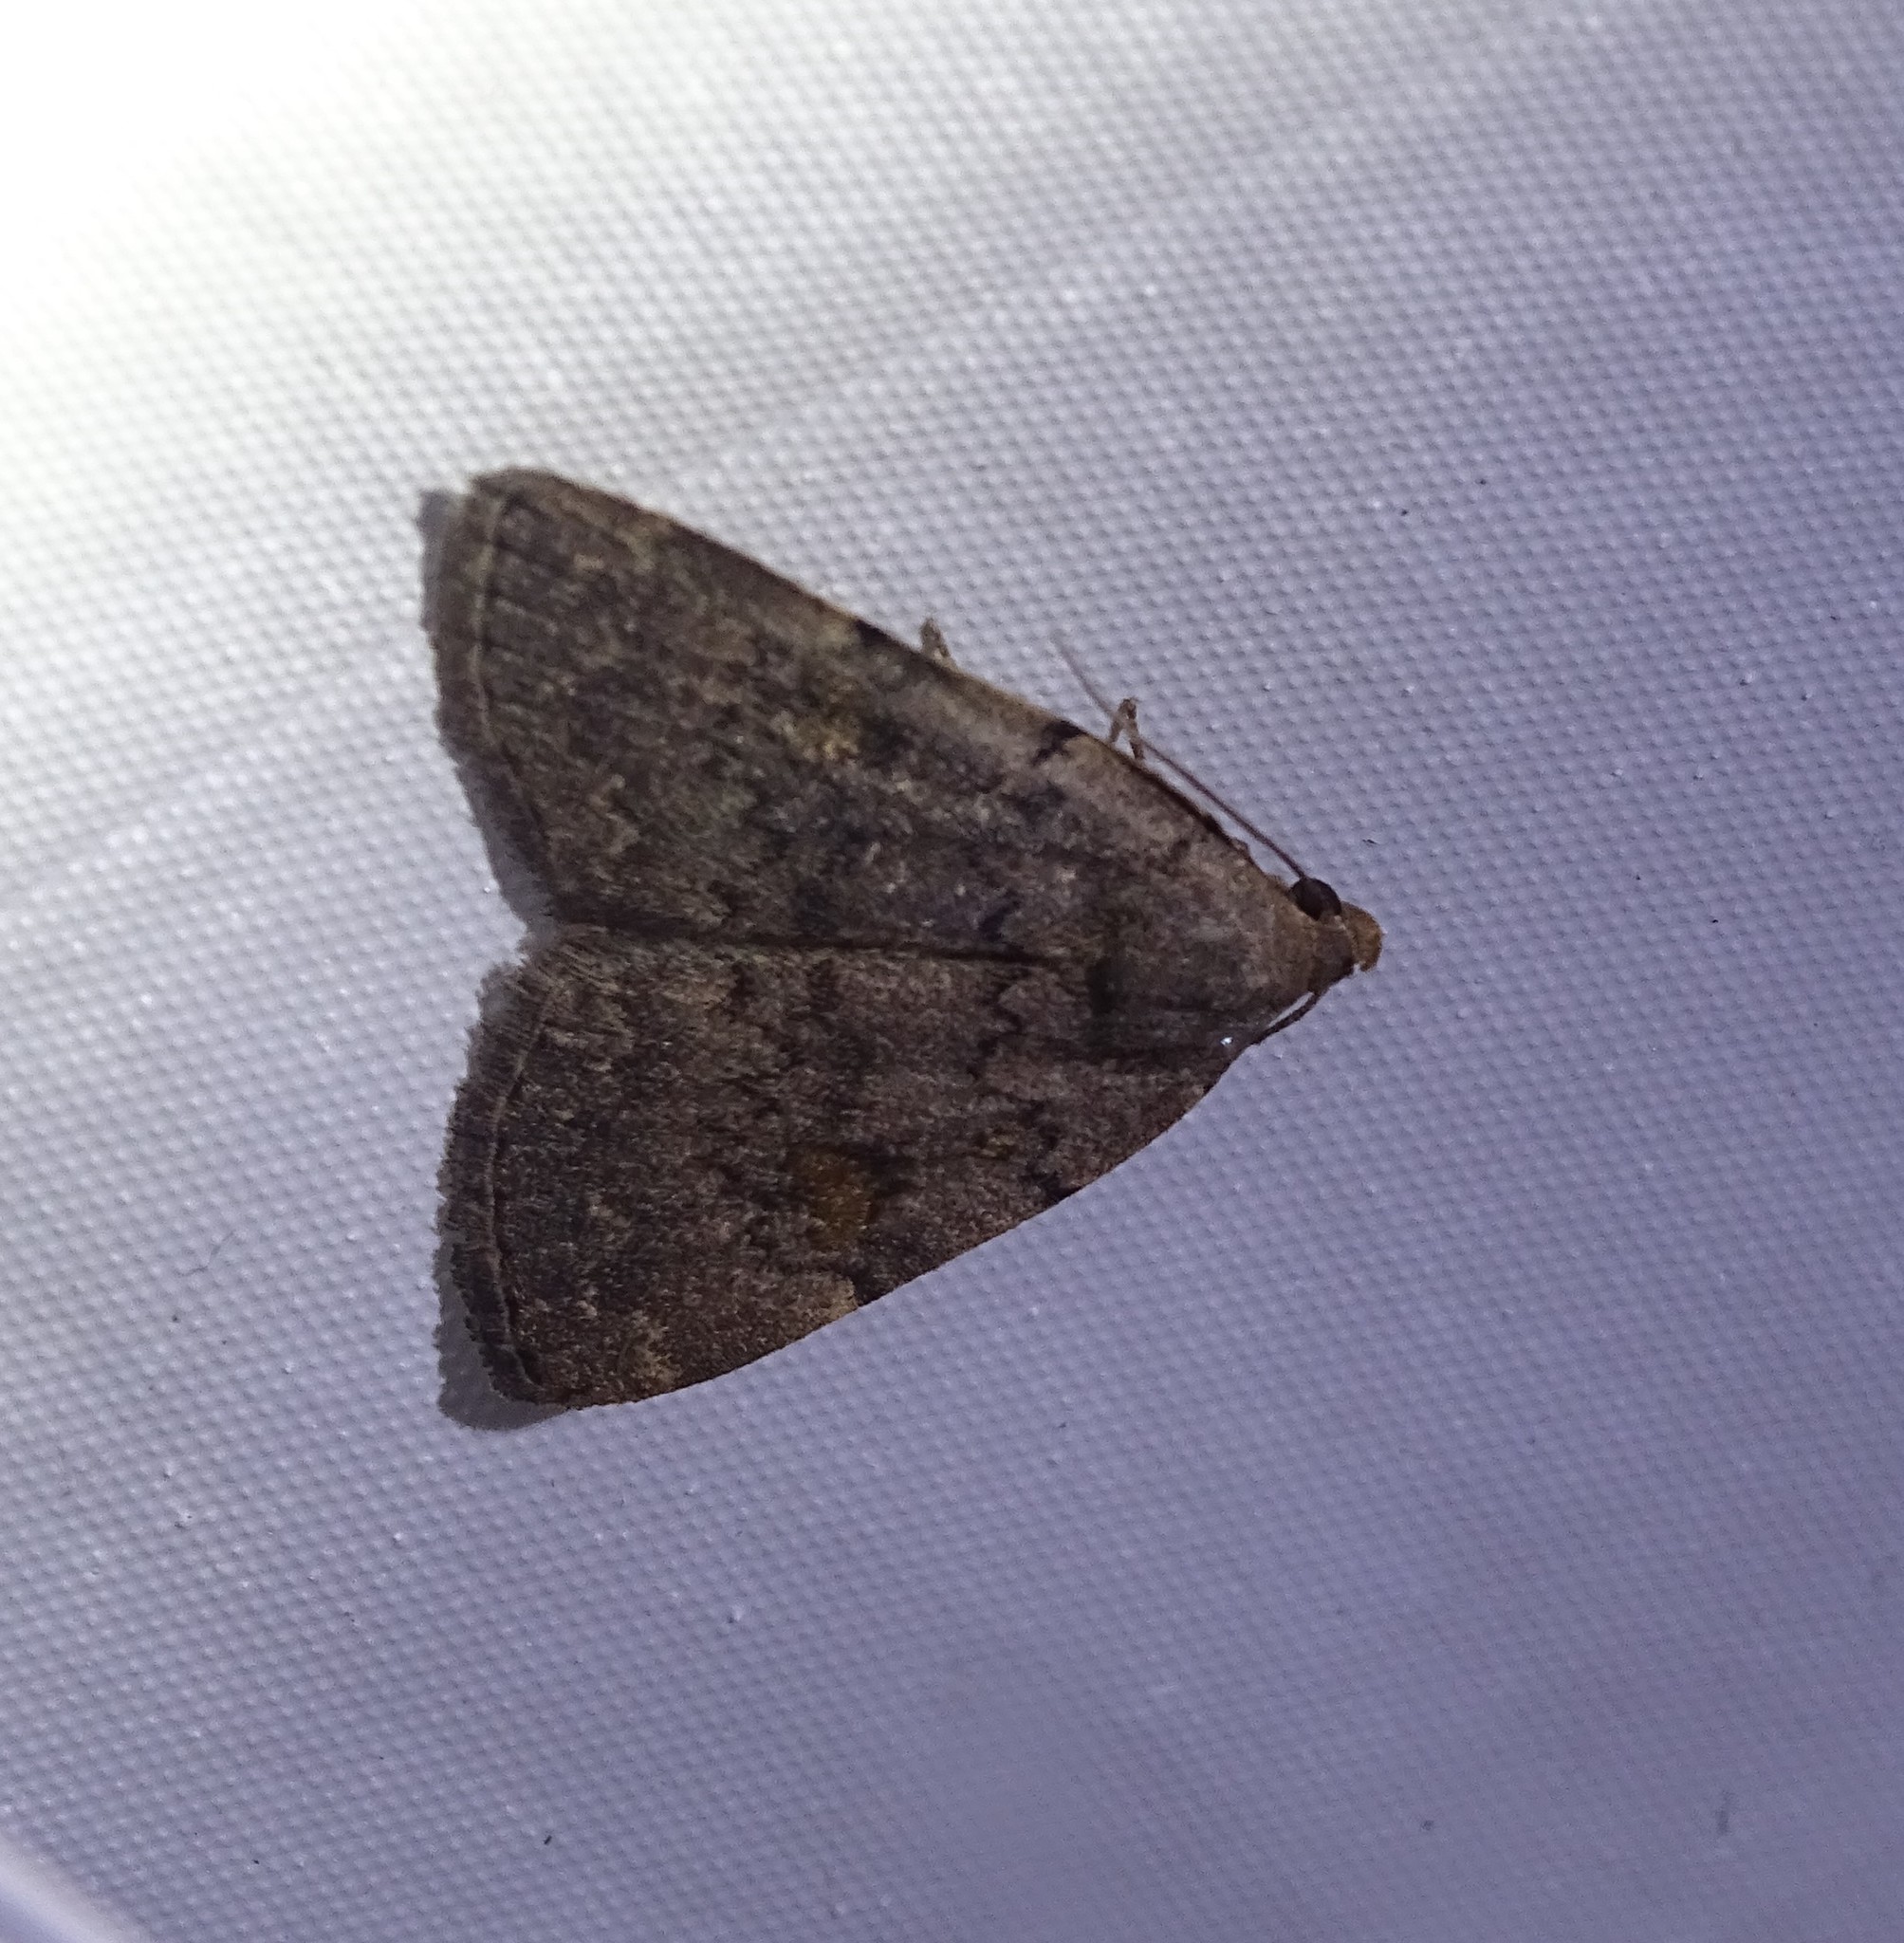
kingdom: Animalia
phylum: Arthropoda
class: Insecta
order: Lepidoptera
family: Erebidae
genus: Idia
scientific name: Idia aemula
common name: Common idia moth
